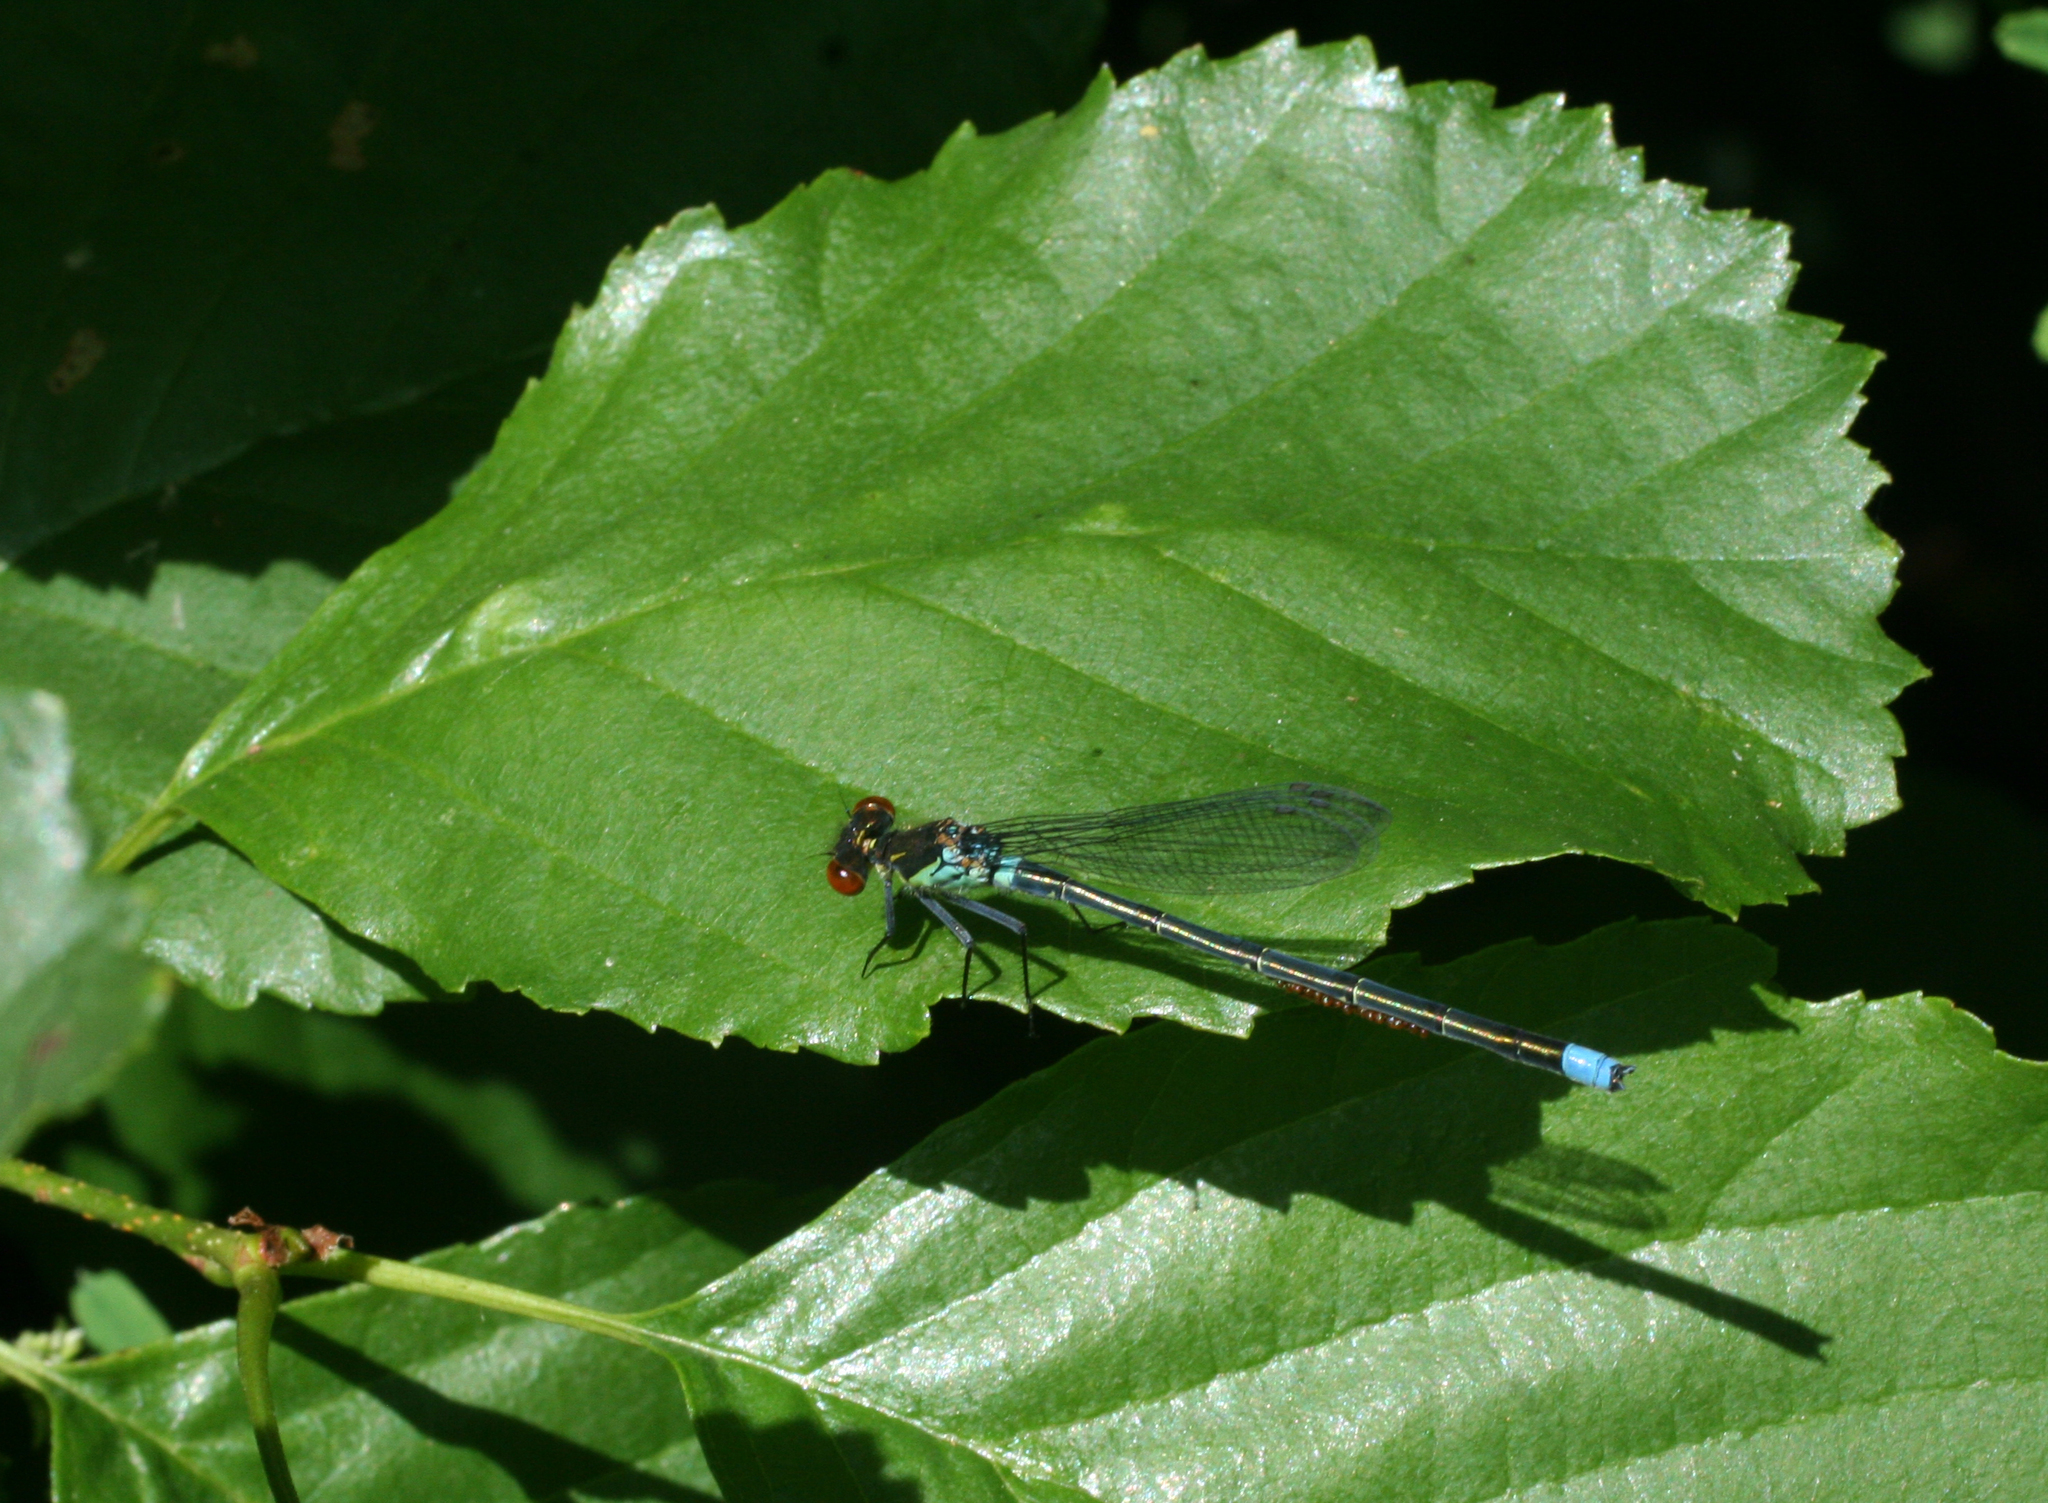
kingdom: Animalia
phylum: Arthropoda
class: Insecta
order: Odonata
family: Coenagrionidae
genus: Erythromma
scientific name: Erythromma najas
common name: Red-eyed damselfly
